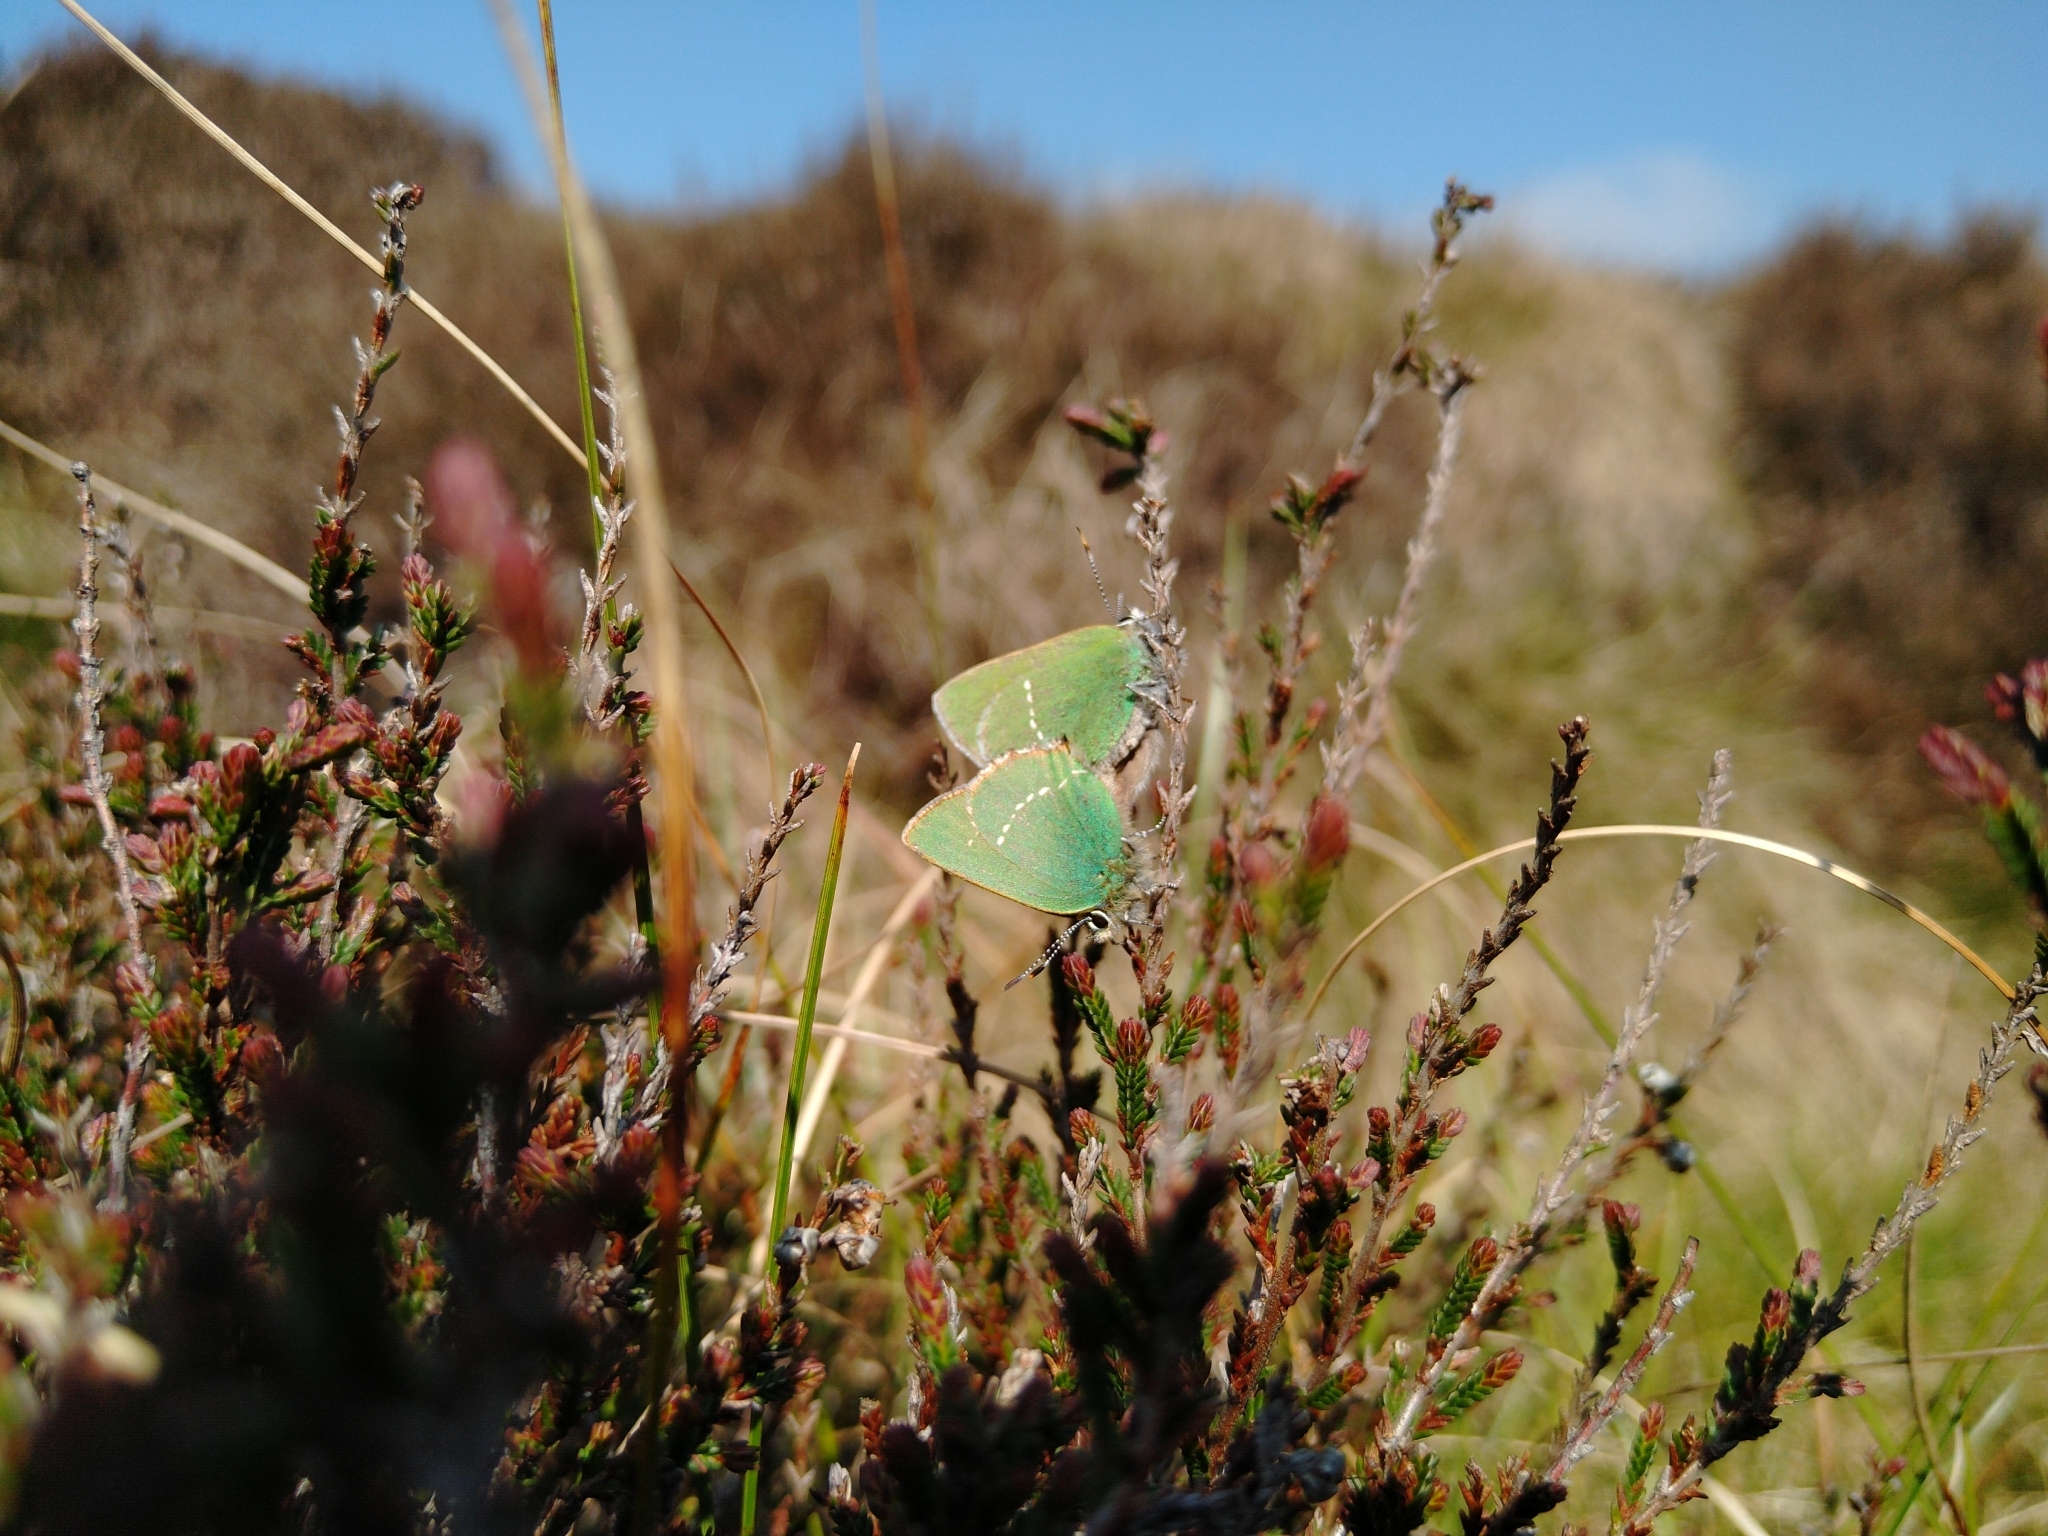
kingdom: Animalia
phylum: Arthropoda
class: Insecta
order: Lepidoptera
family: Lycaenidae
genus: Callophrys
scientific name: Callophrys rubi
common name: Green hairstreak
